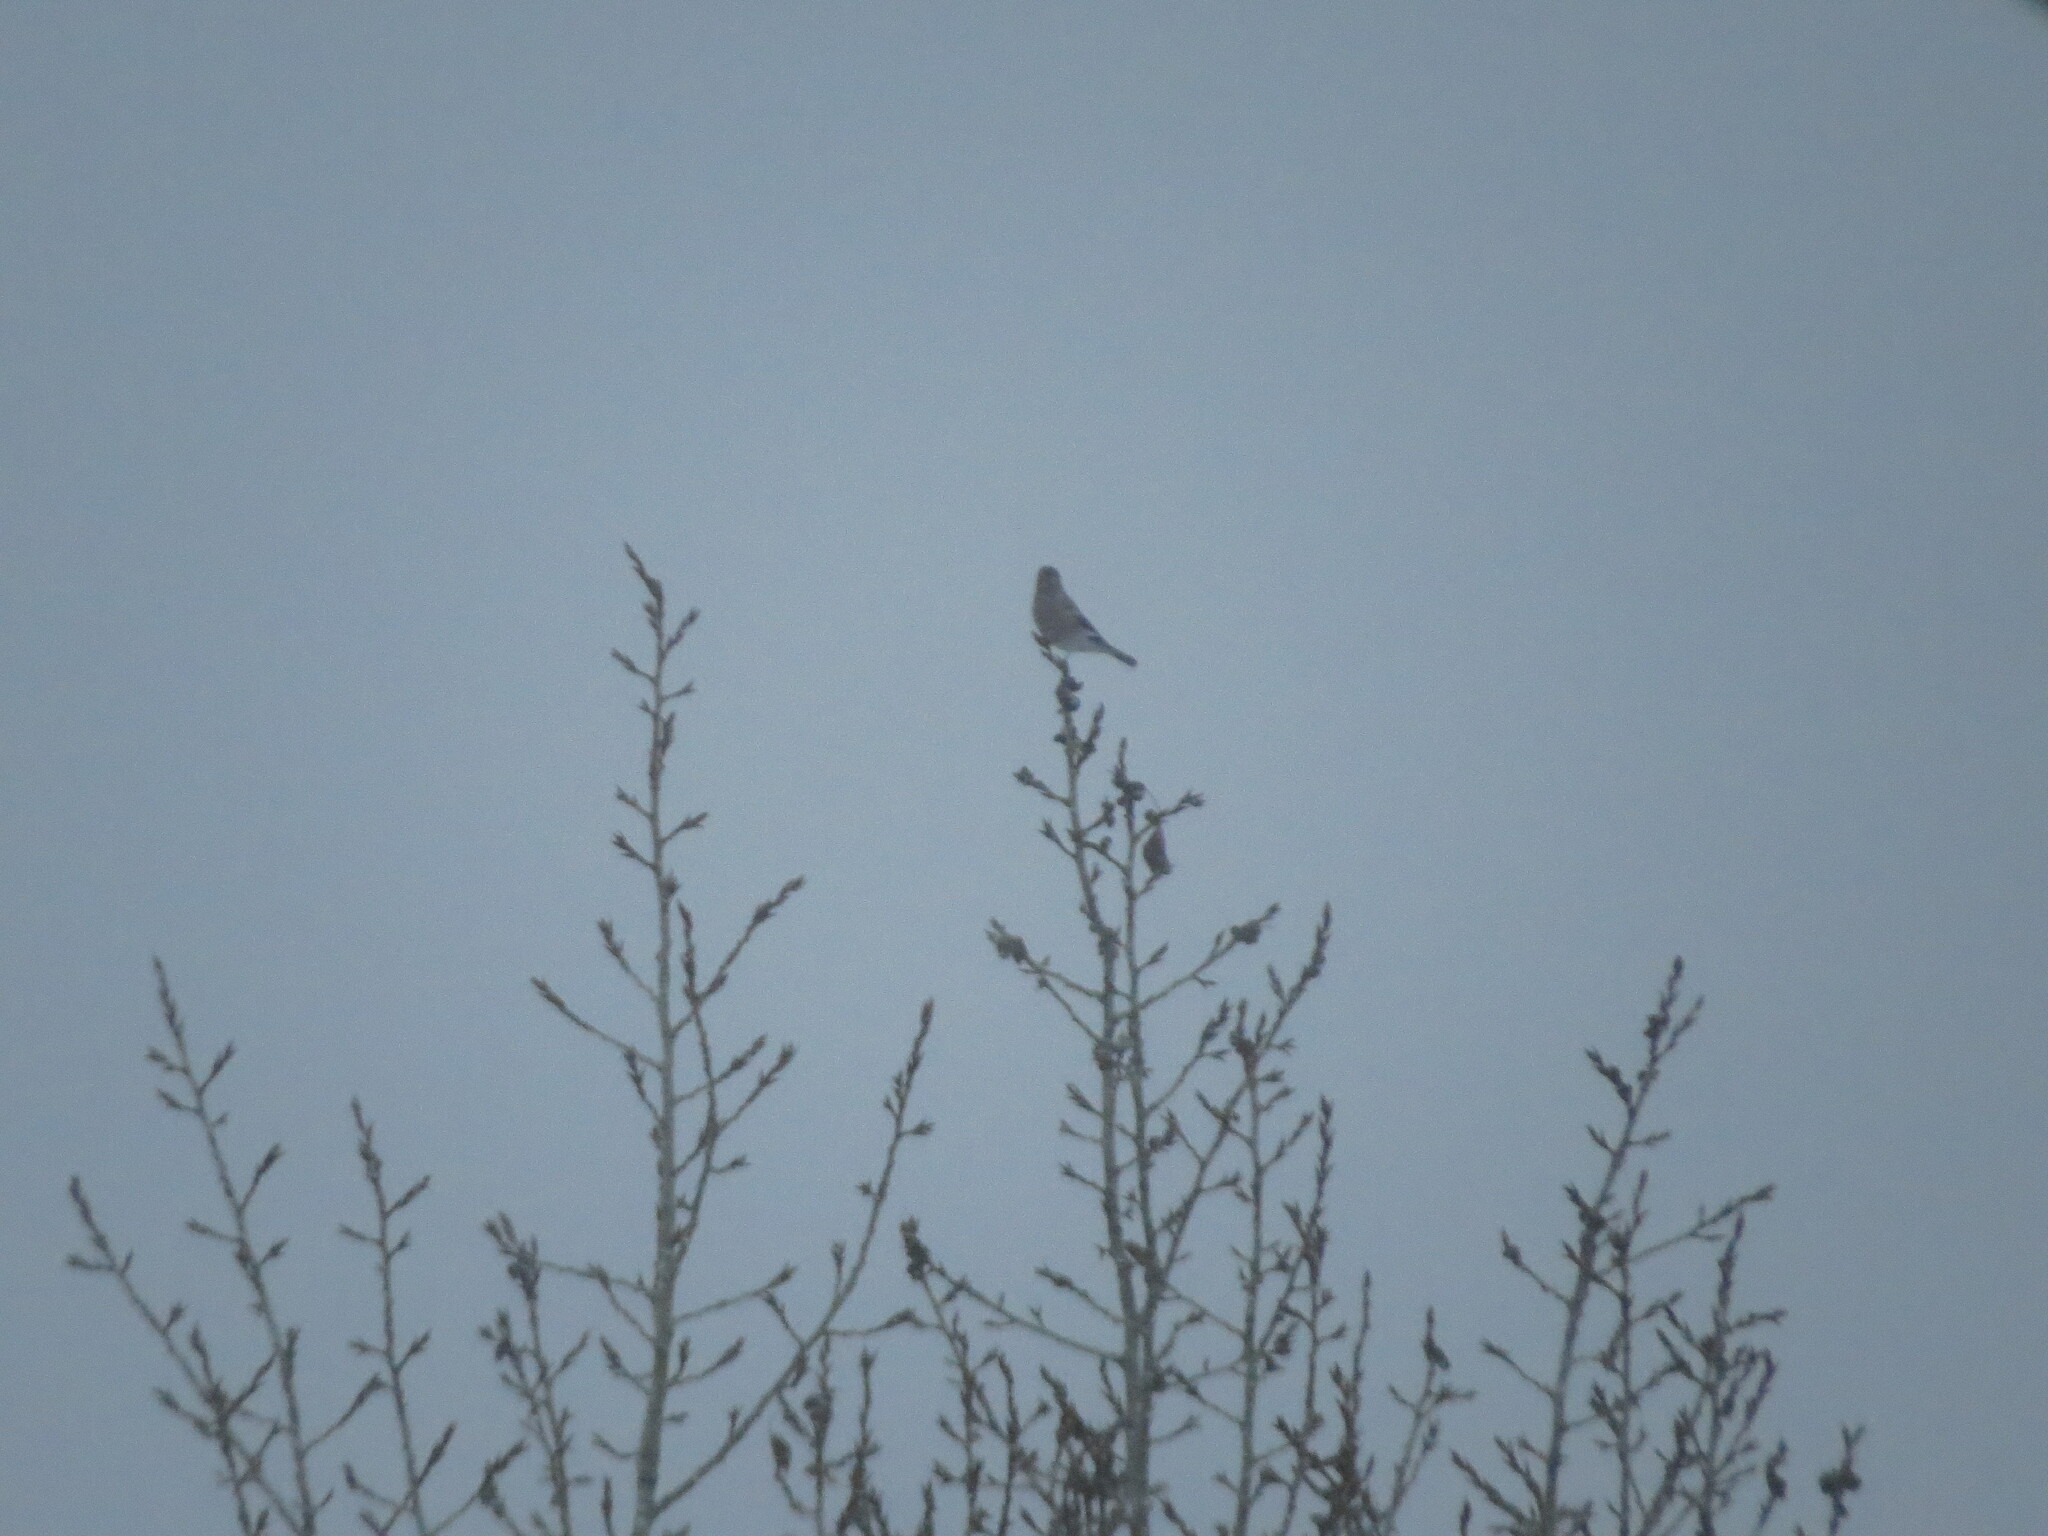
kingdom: Animalia
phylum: Chordata
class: Aves
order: Passeriformes
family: Fringillidae
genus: Pyrrhula
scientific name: Pyrrhula pyrrhula
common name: Eurasian bullfinch
